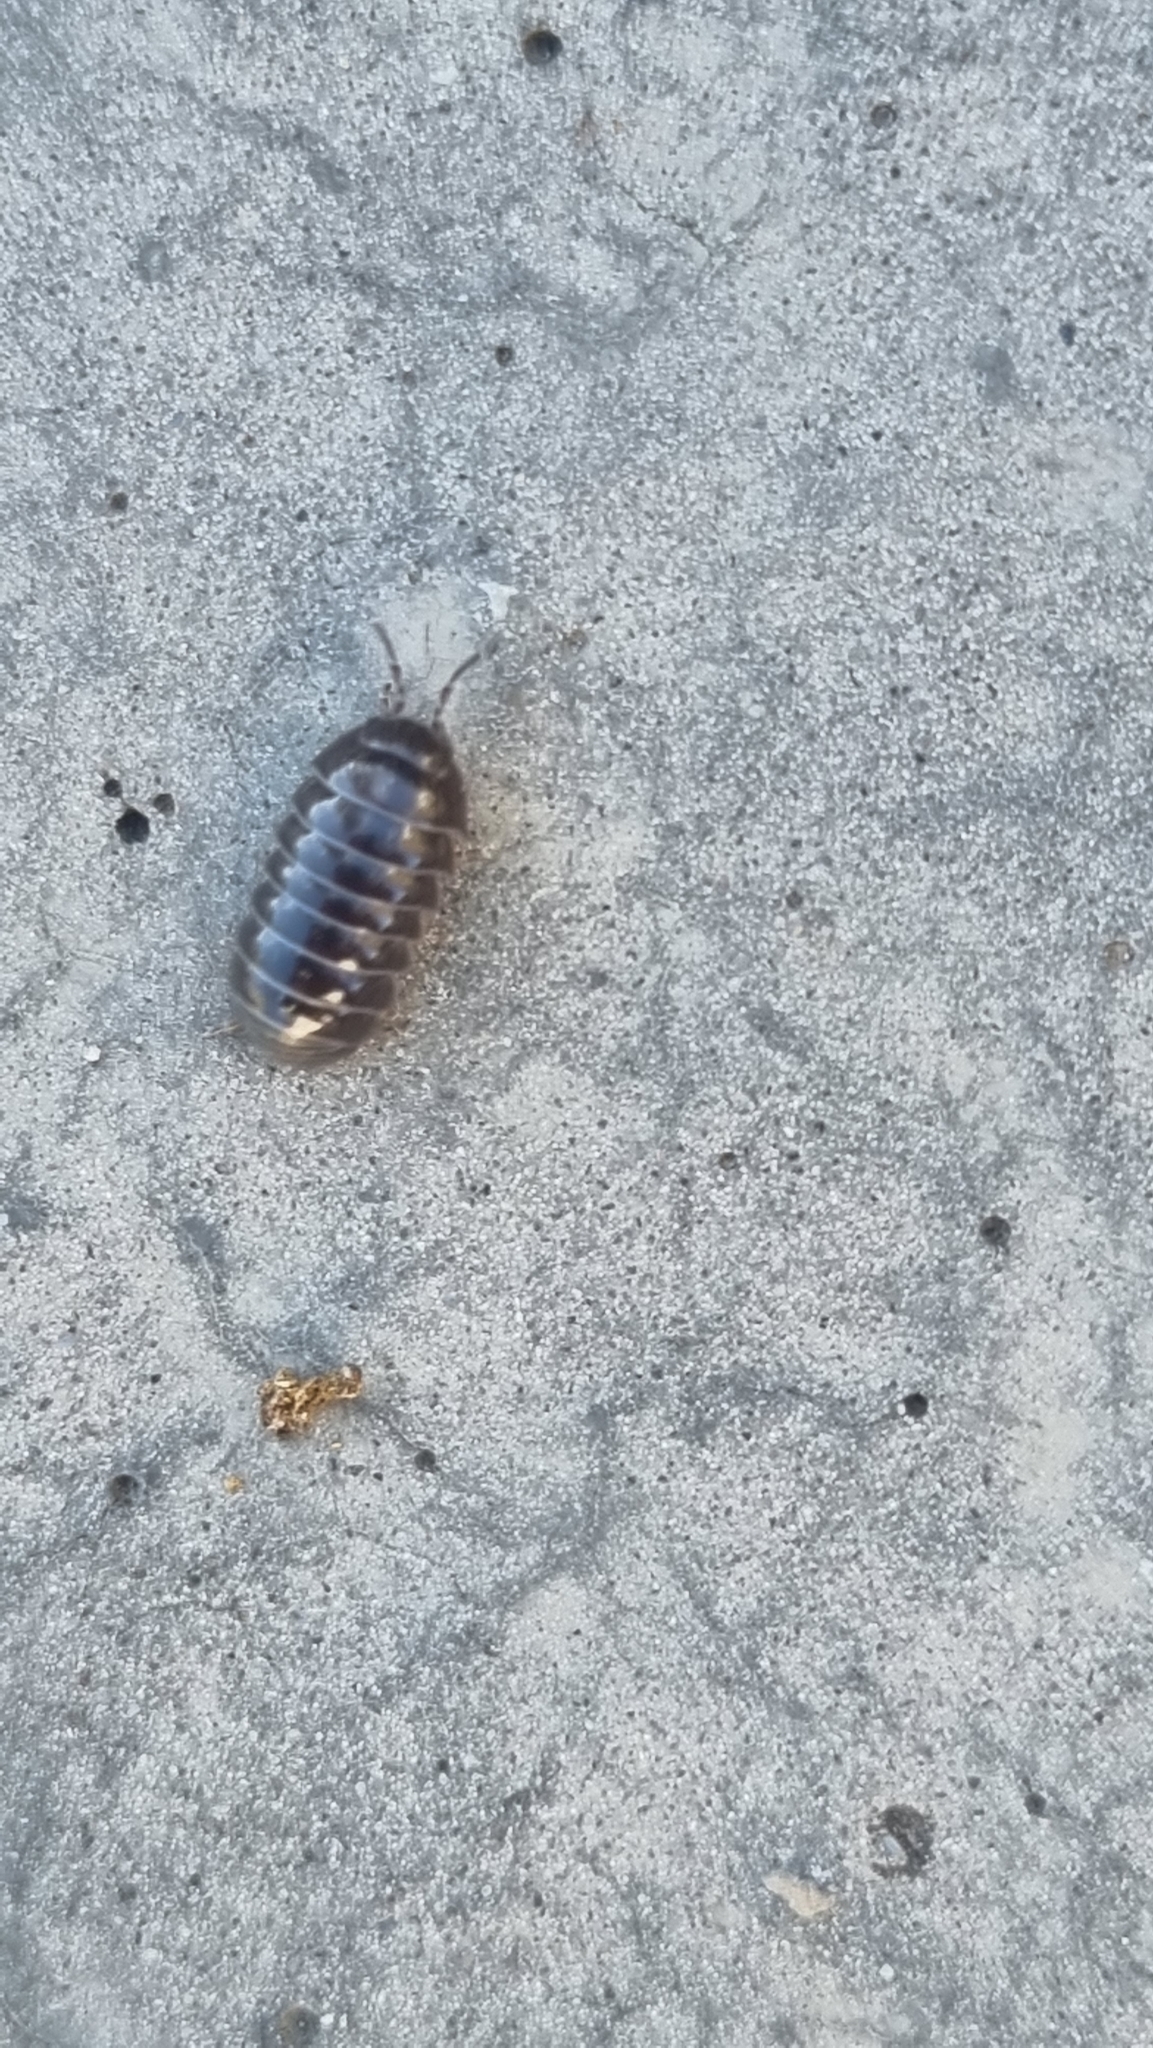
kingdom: Animalia
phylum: Arthropoda
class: Malacostraca
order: Isopoda
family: Armadillidiidae
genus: Armadillidium
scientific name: Armadillidium vulgare
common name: Common pill woodlouse
